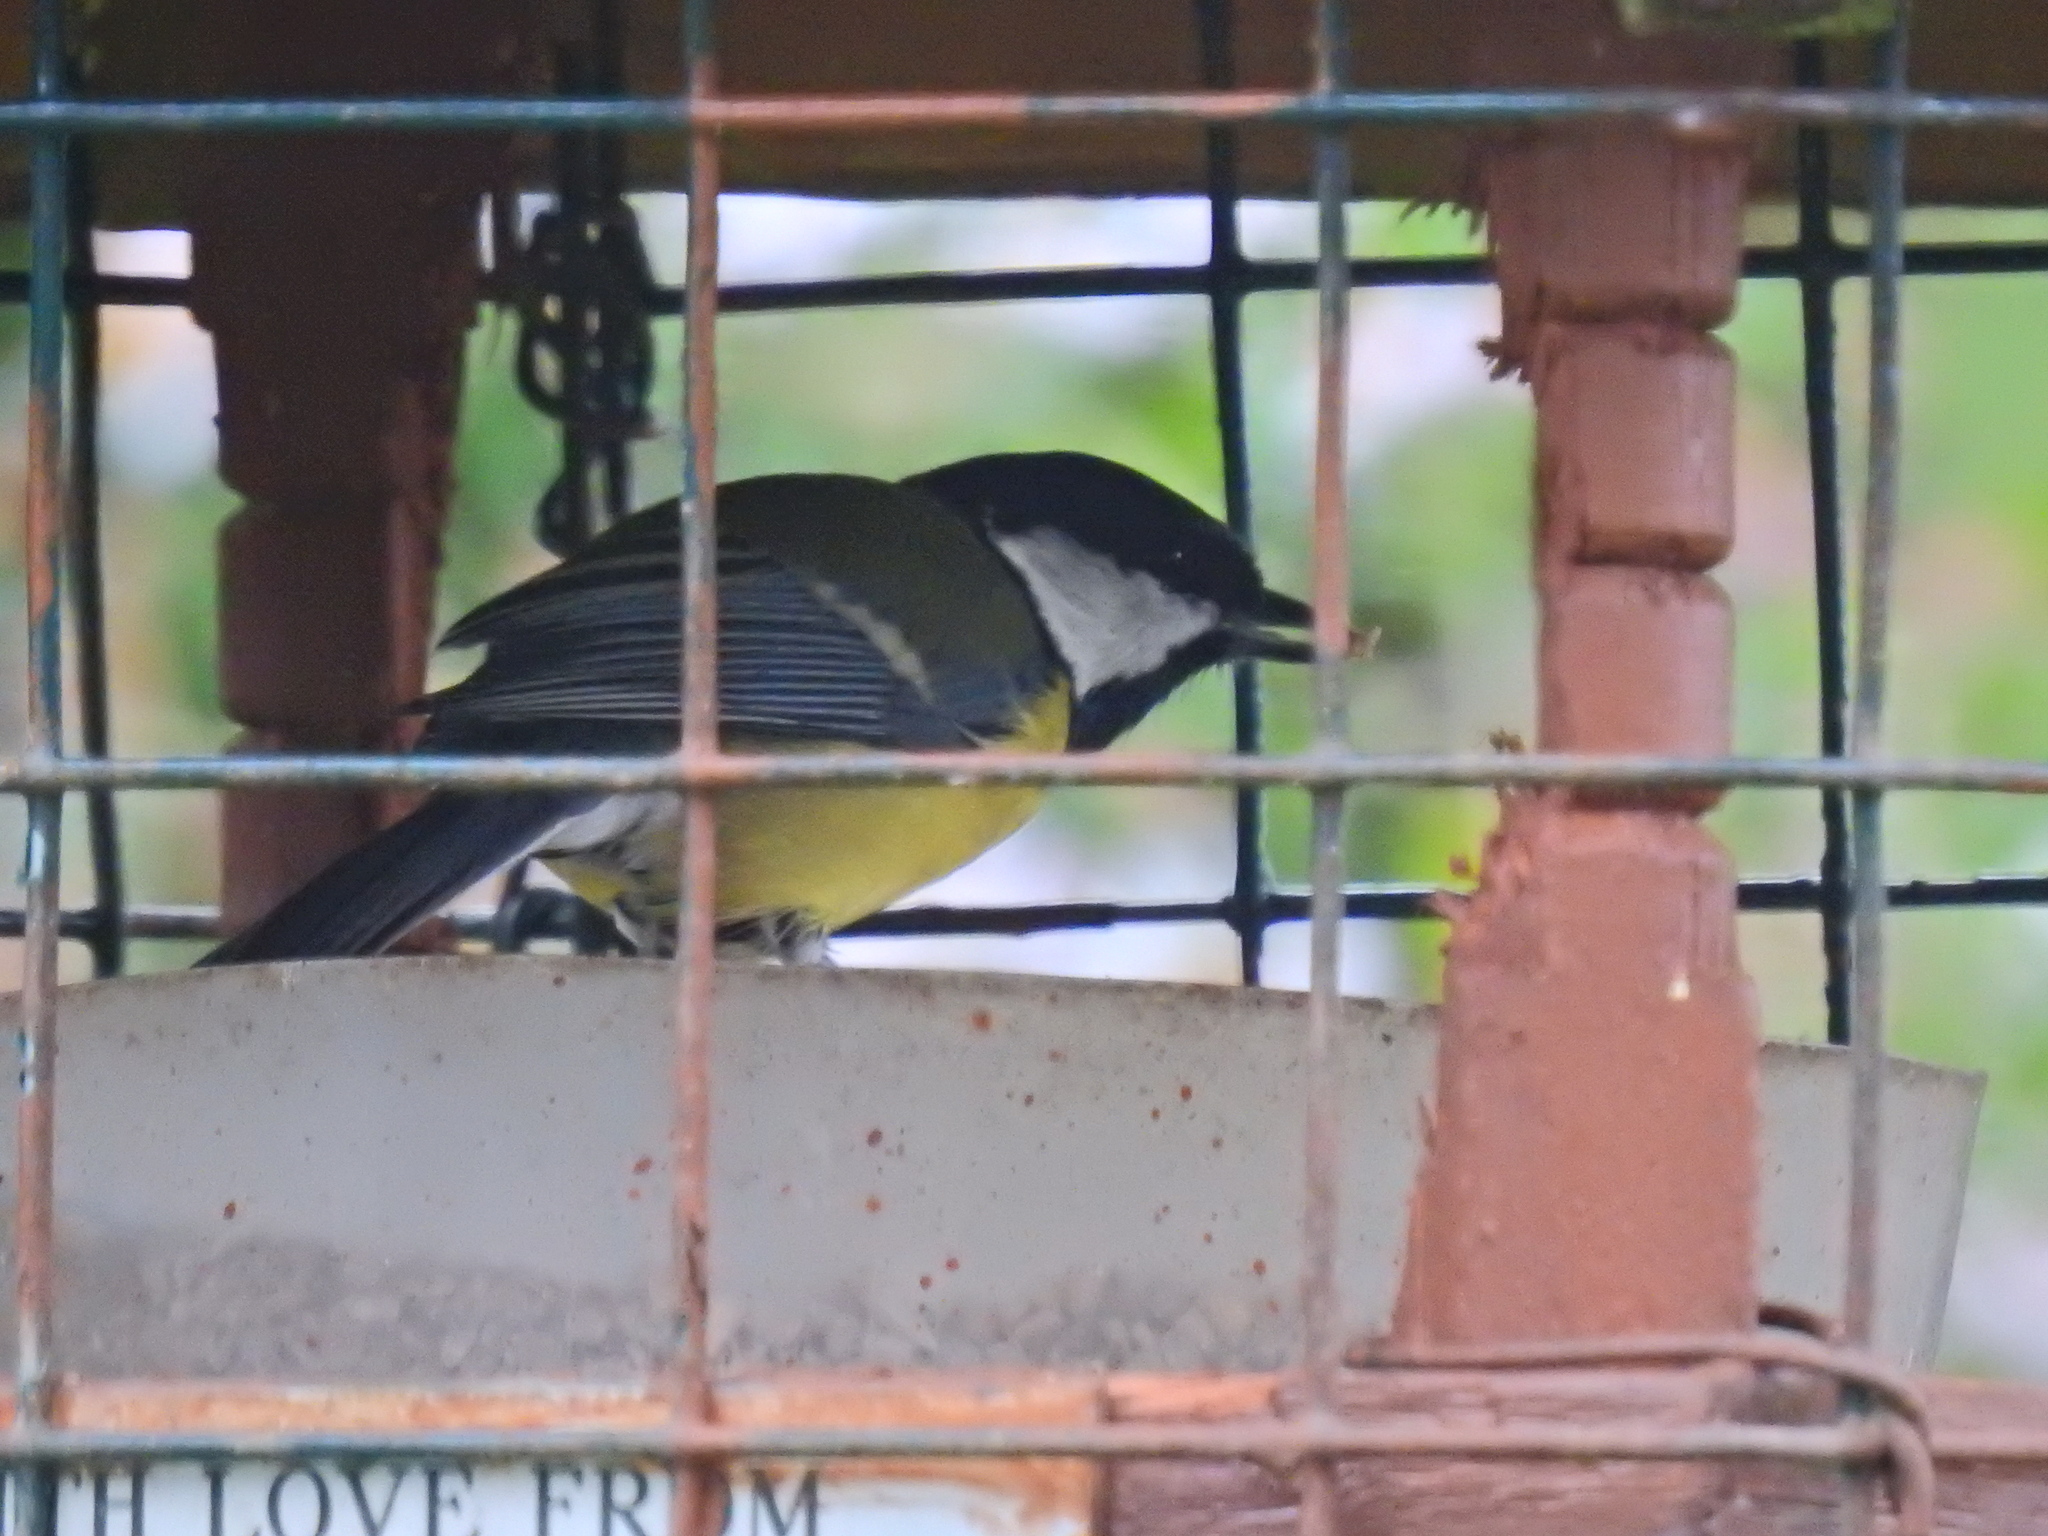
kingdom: Animalia
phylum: Chordata
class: Aves
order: Passeriformes
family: Paridae
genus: Parus
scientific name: Parus major
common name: Great tit
